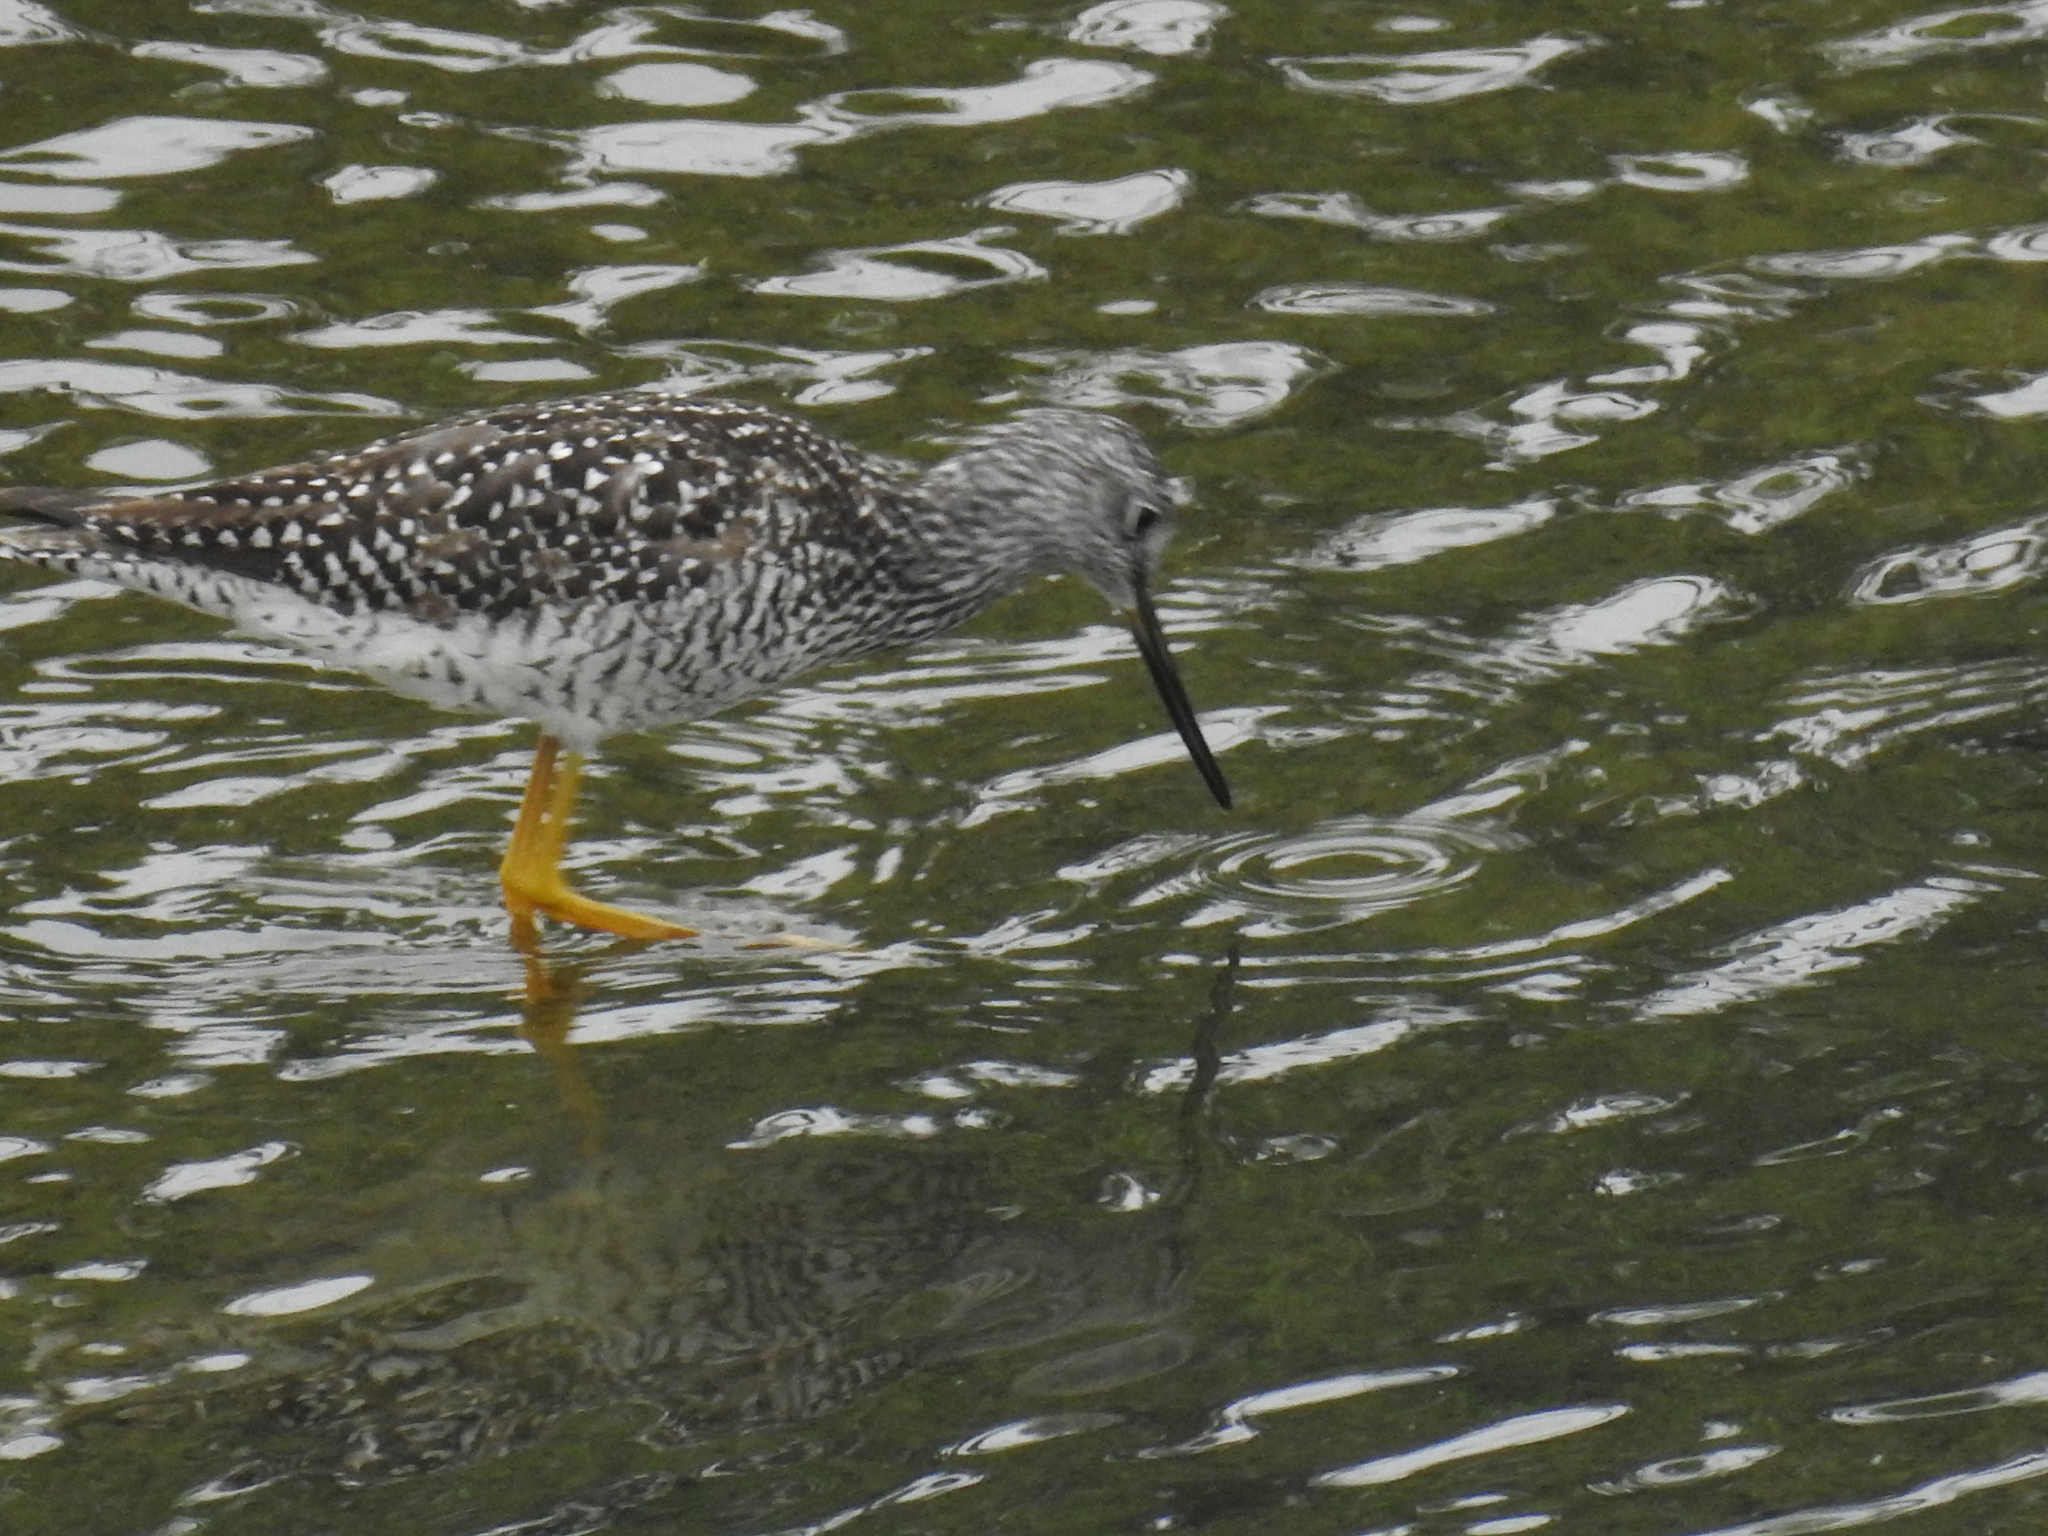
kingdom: Animalia
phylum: Chordata
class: Aves
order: Charadriiformes
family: Scolopacidae
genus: Tringa
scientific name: Tringa melanoleuca
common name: Greater yellowlegs
